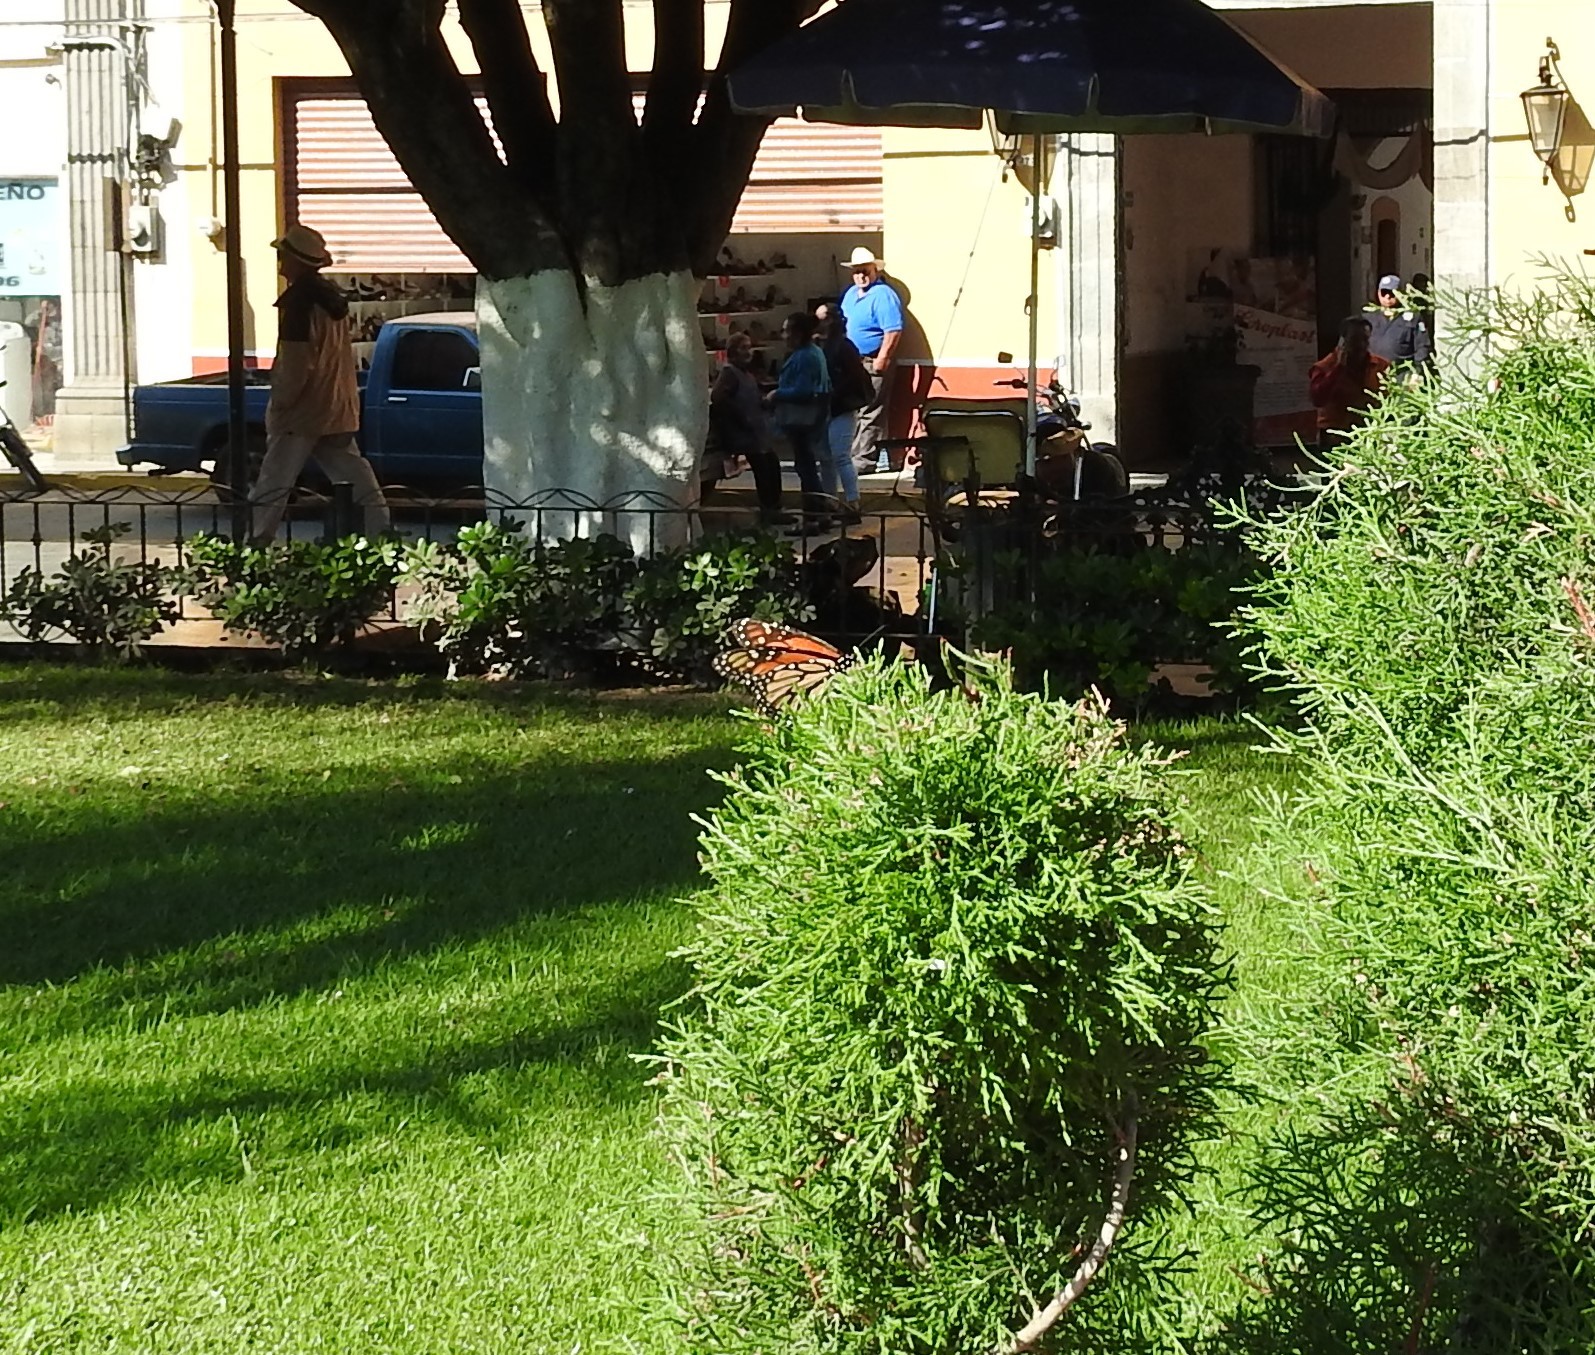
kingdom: Animalia
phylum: Arthropoda
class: Insecta
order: Lepidoptera
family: Nymphalidae
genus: Danaus
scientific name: Danaus plexippus
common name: Monarch
